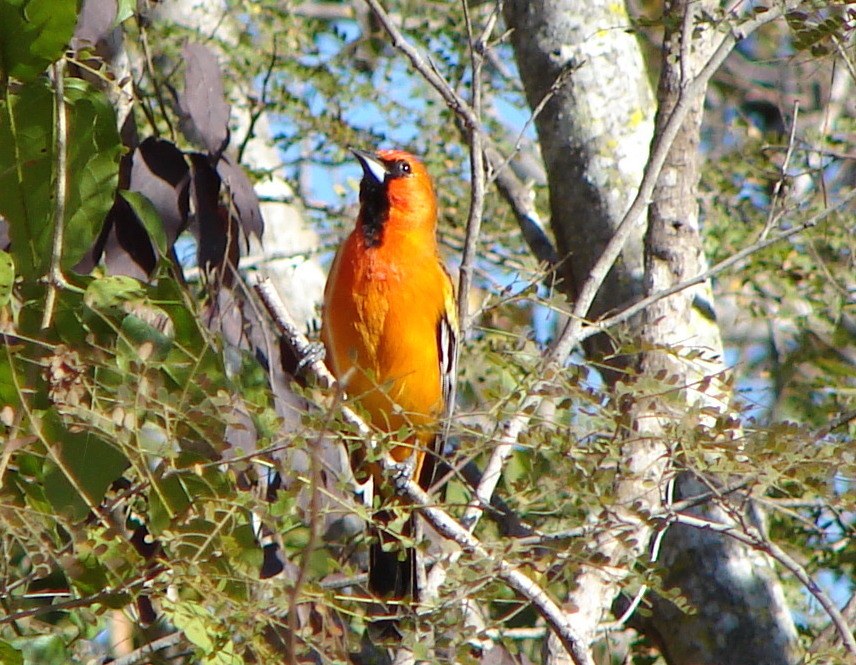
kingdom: Animalia
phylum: Chordata
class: Aves
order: Passeriformes
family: Icteridae
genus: Icterus
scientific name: Icterus pustulatus
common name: Streak-backed oriole
